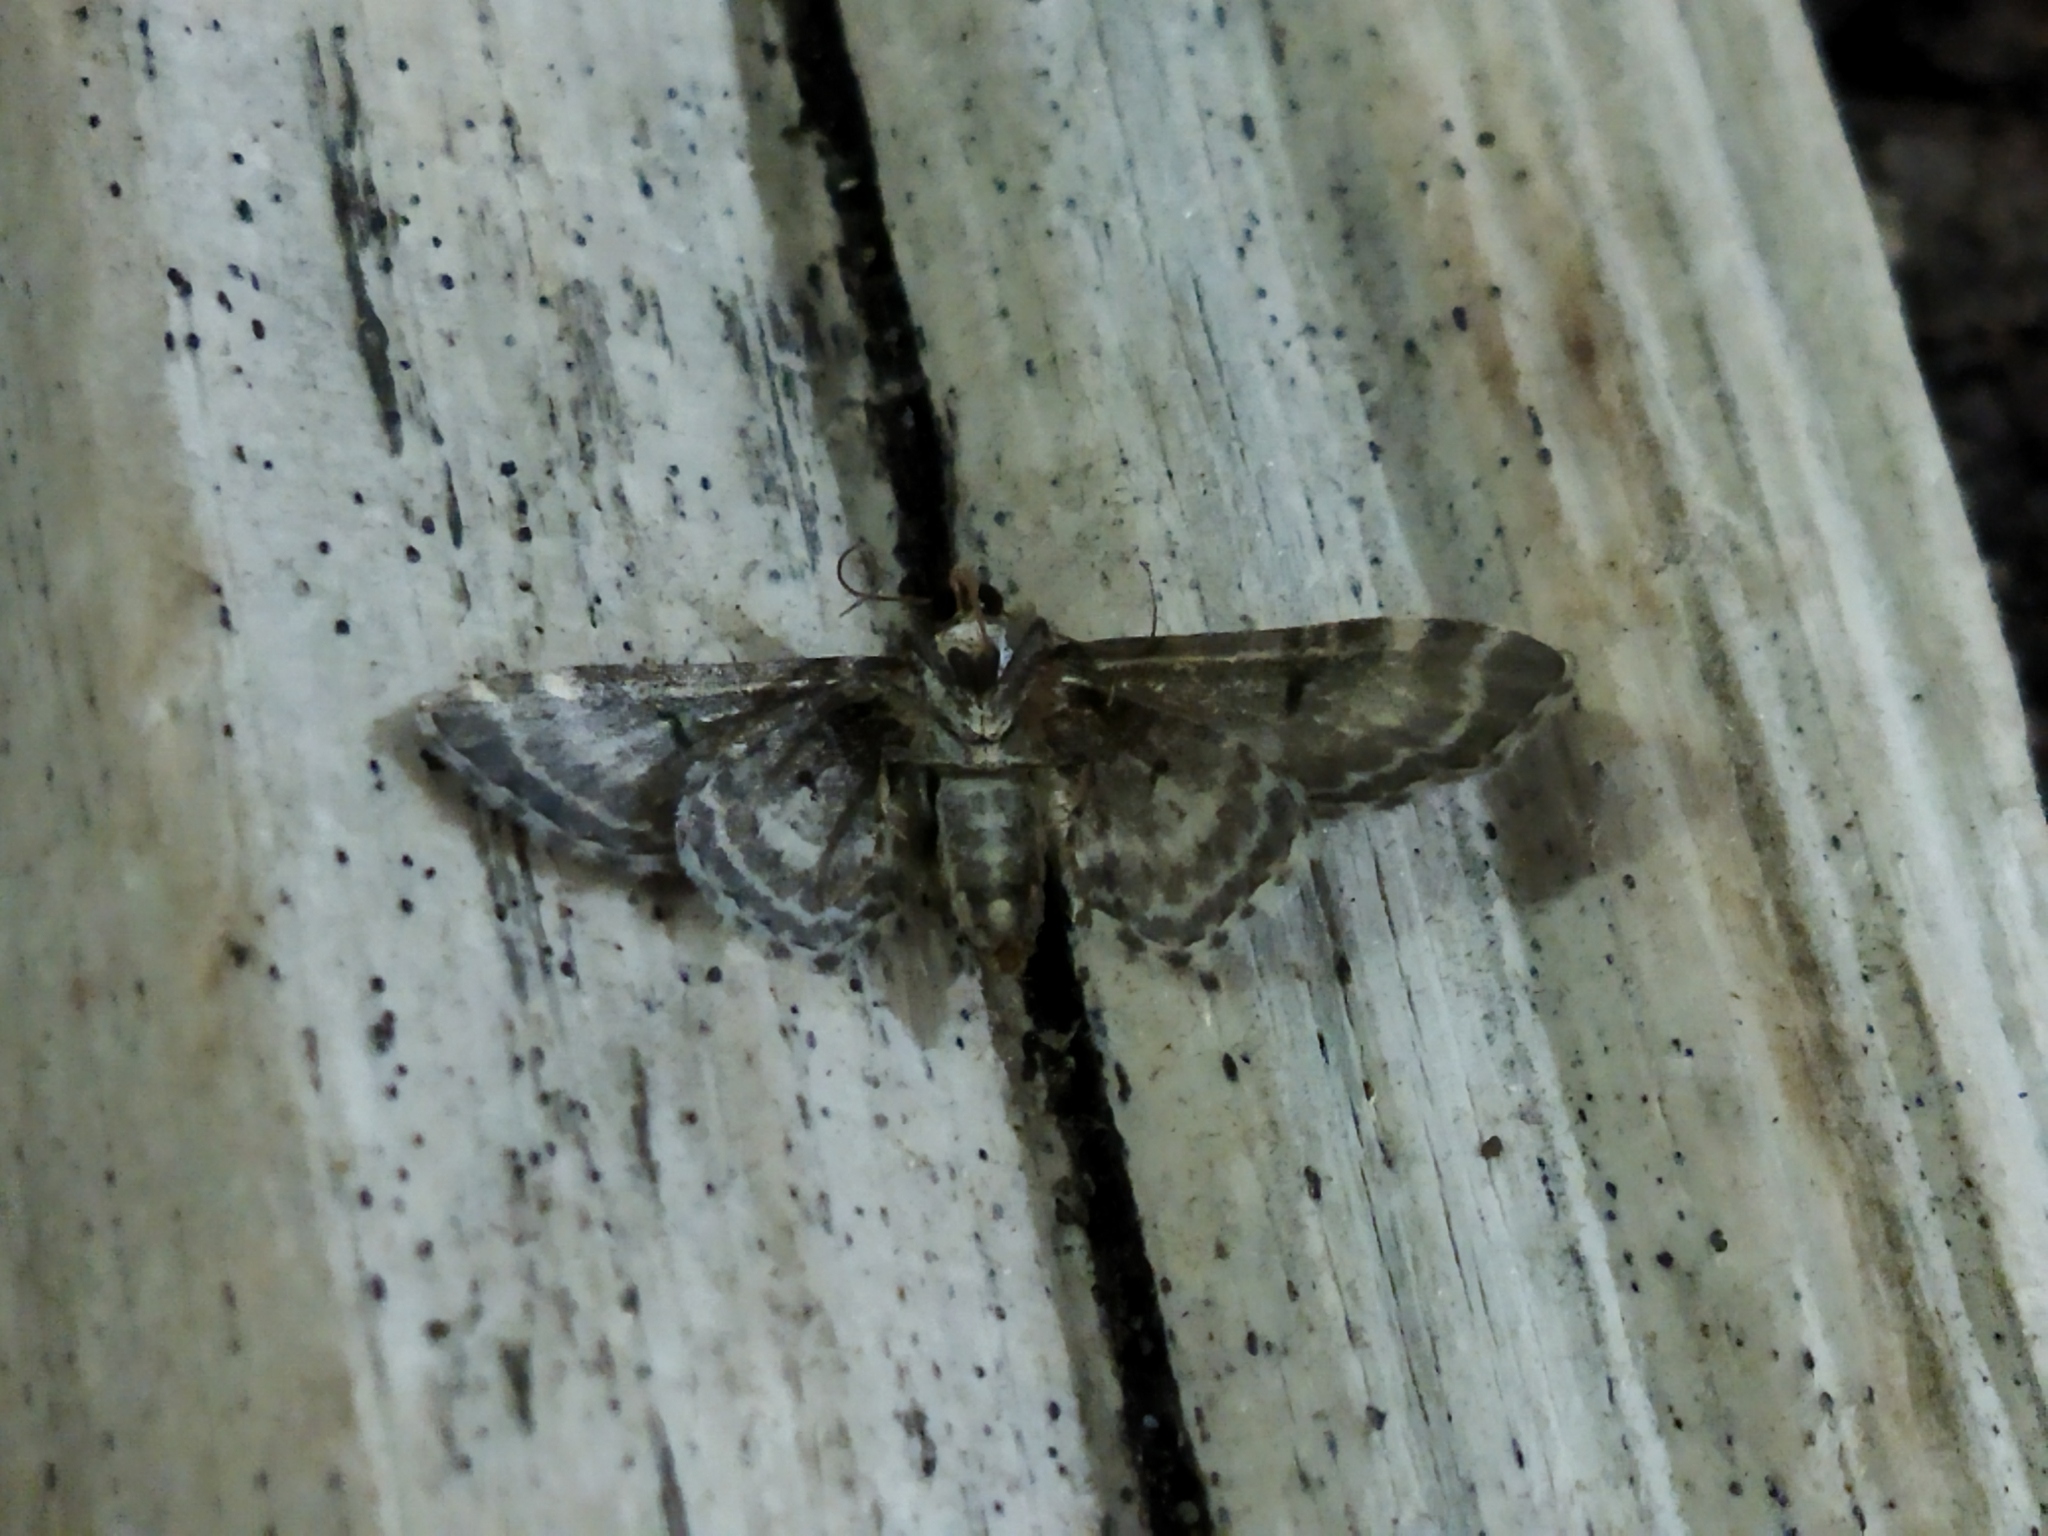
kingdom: Animalia
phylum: Arthropoda
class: Insecta
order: Lepidoptera
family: Geometridae
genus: Eupithecia
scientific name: Eupithecia centaureata
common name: Lime-speck pug
